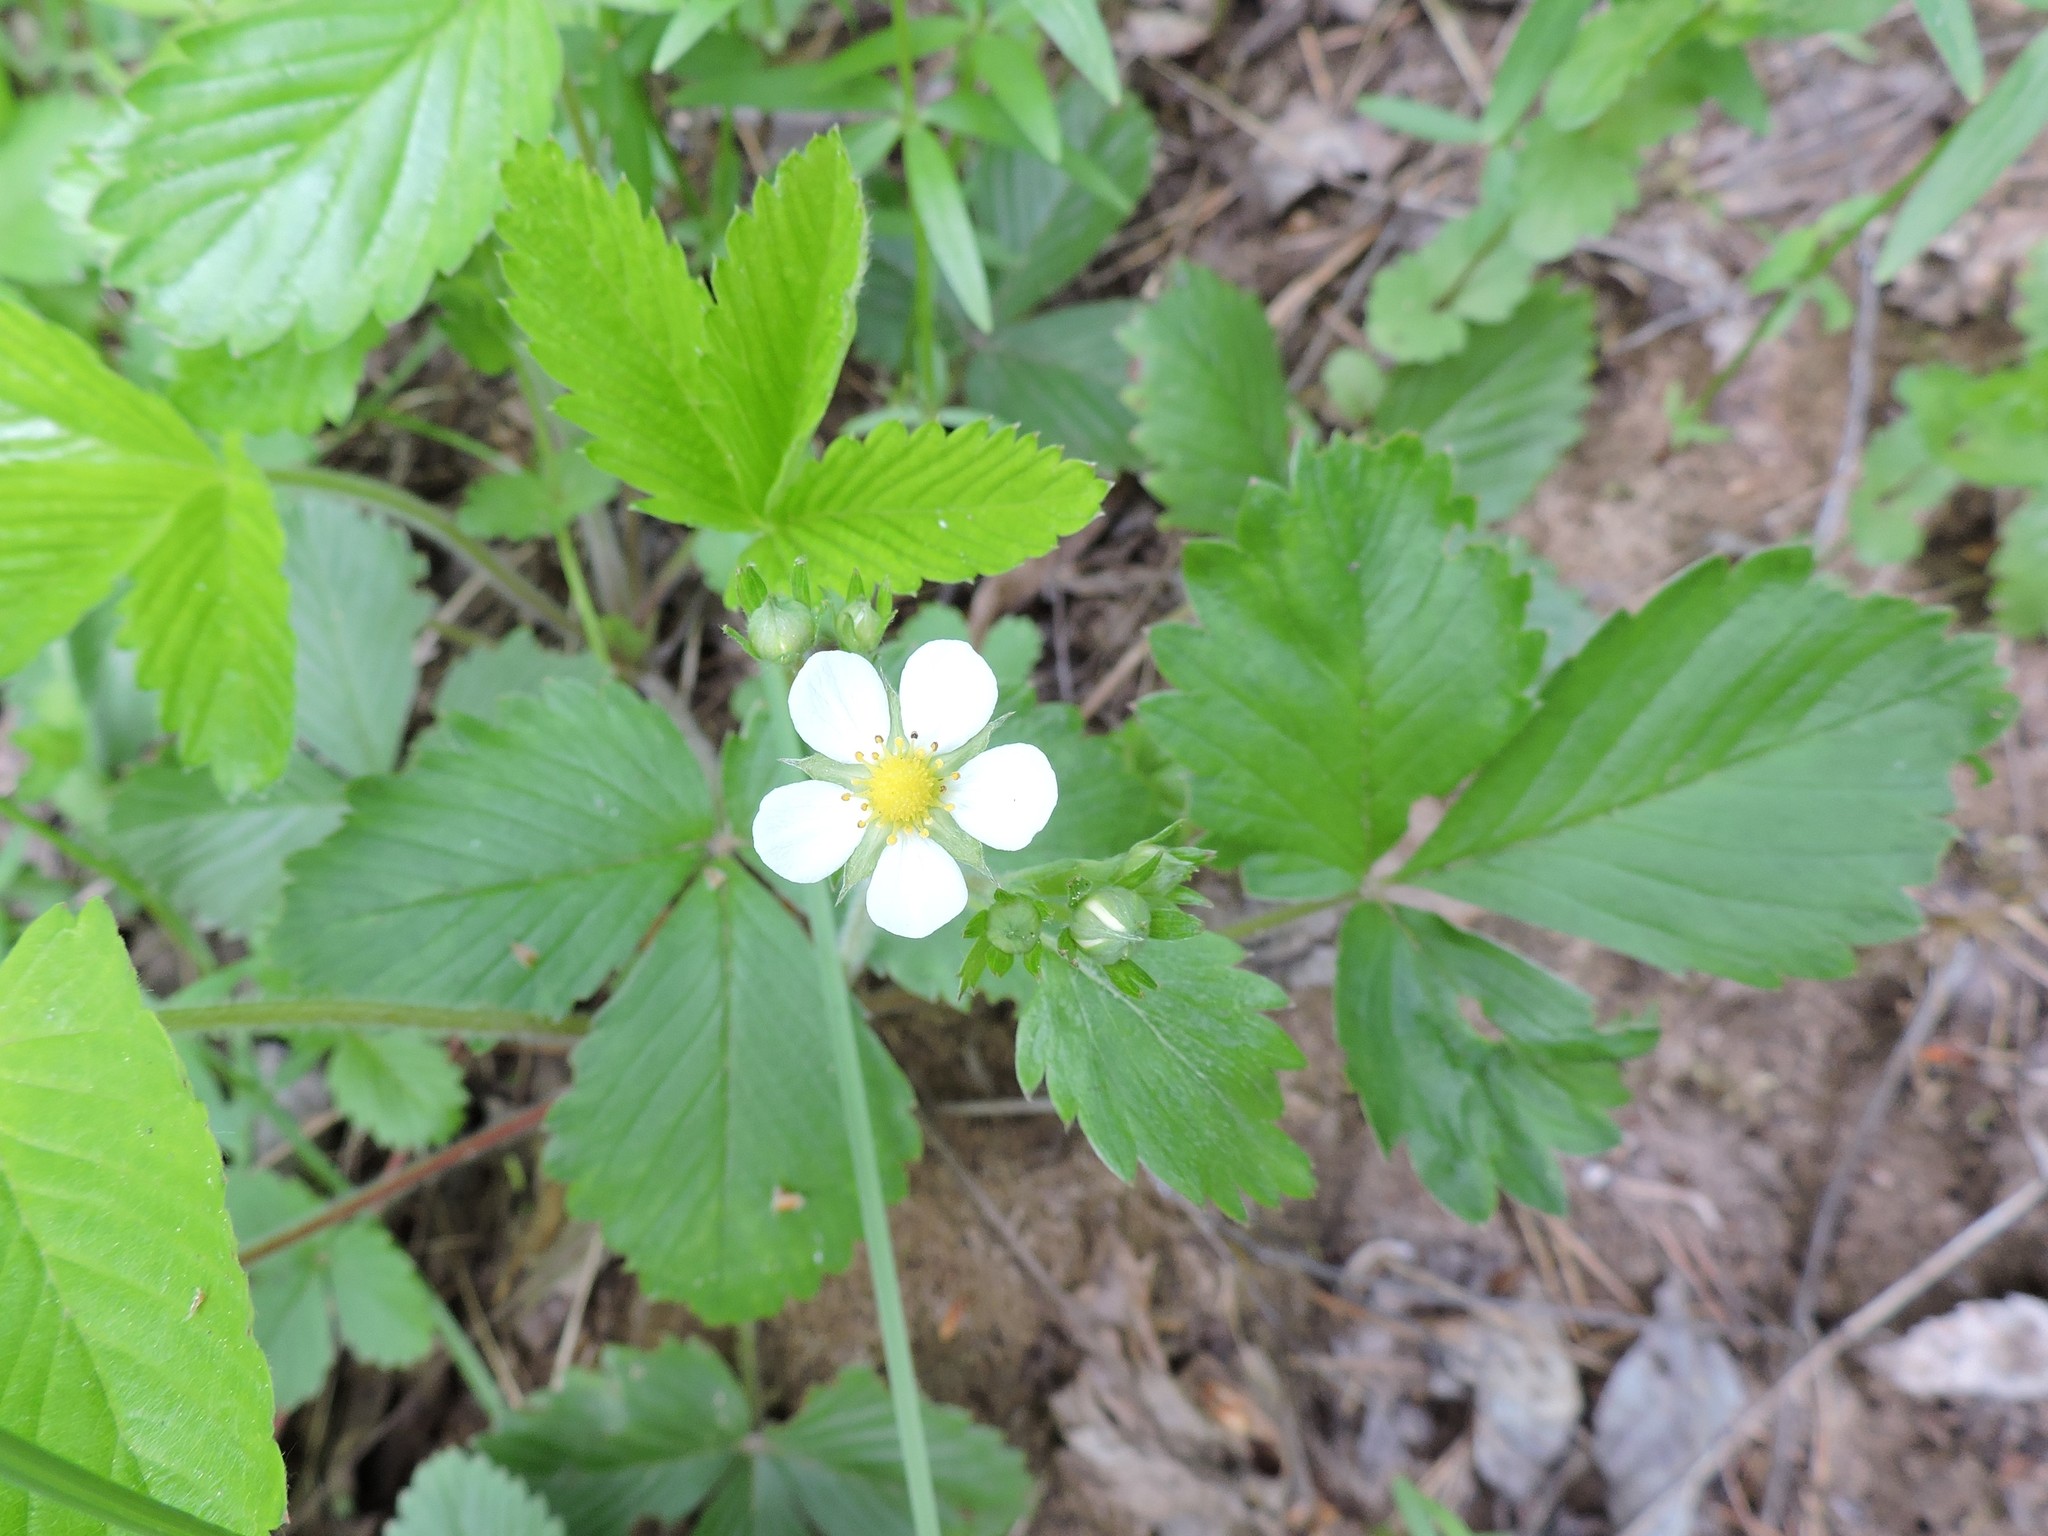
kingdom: Plantae
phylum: Tracheophyta
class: Magnoliopsida
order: Rosales
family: Rosaceae
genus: Fragaria
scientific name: Fragaria vesca
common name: Wild strawberry
